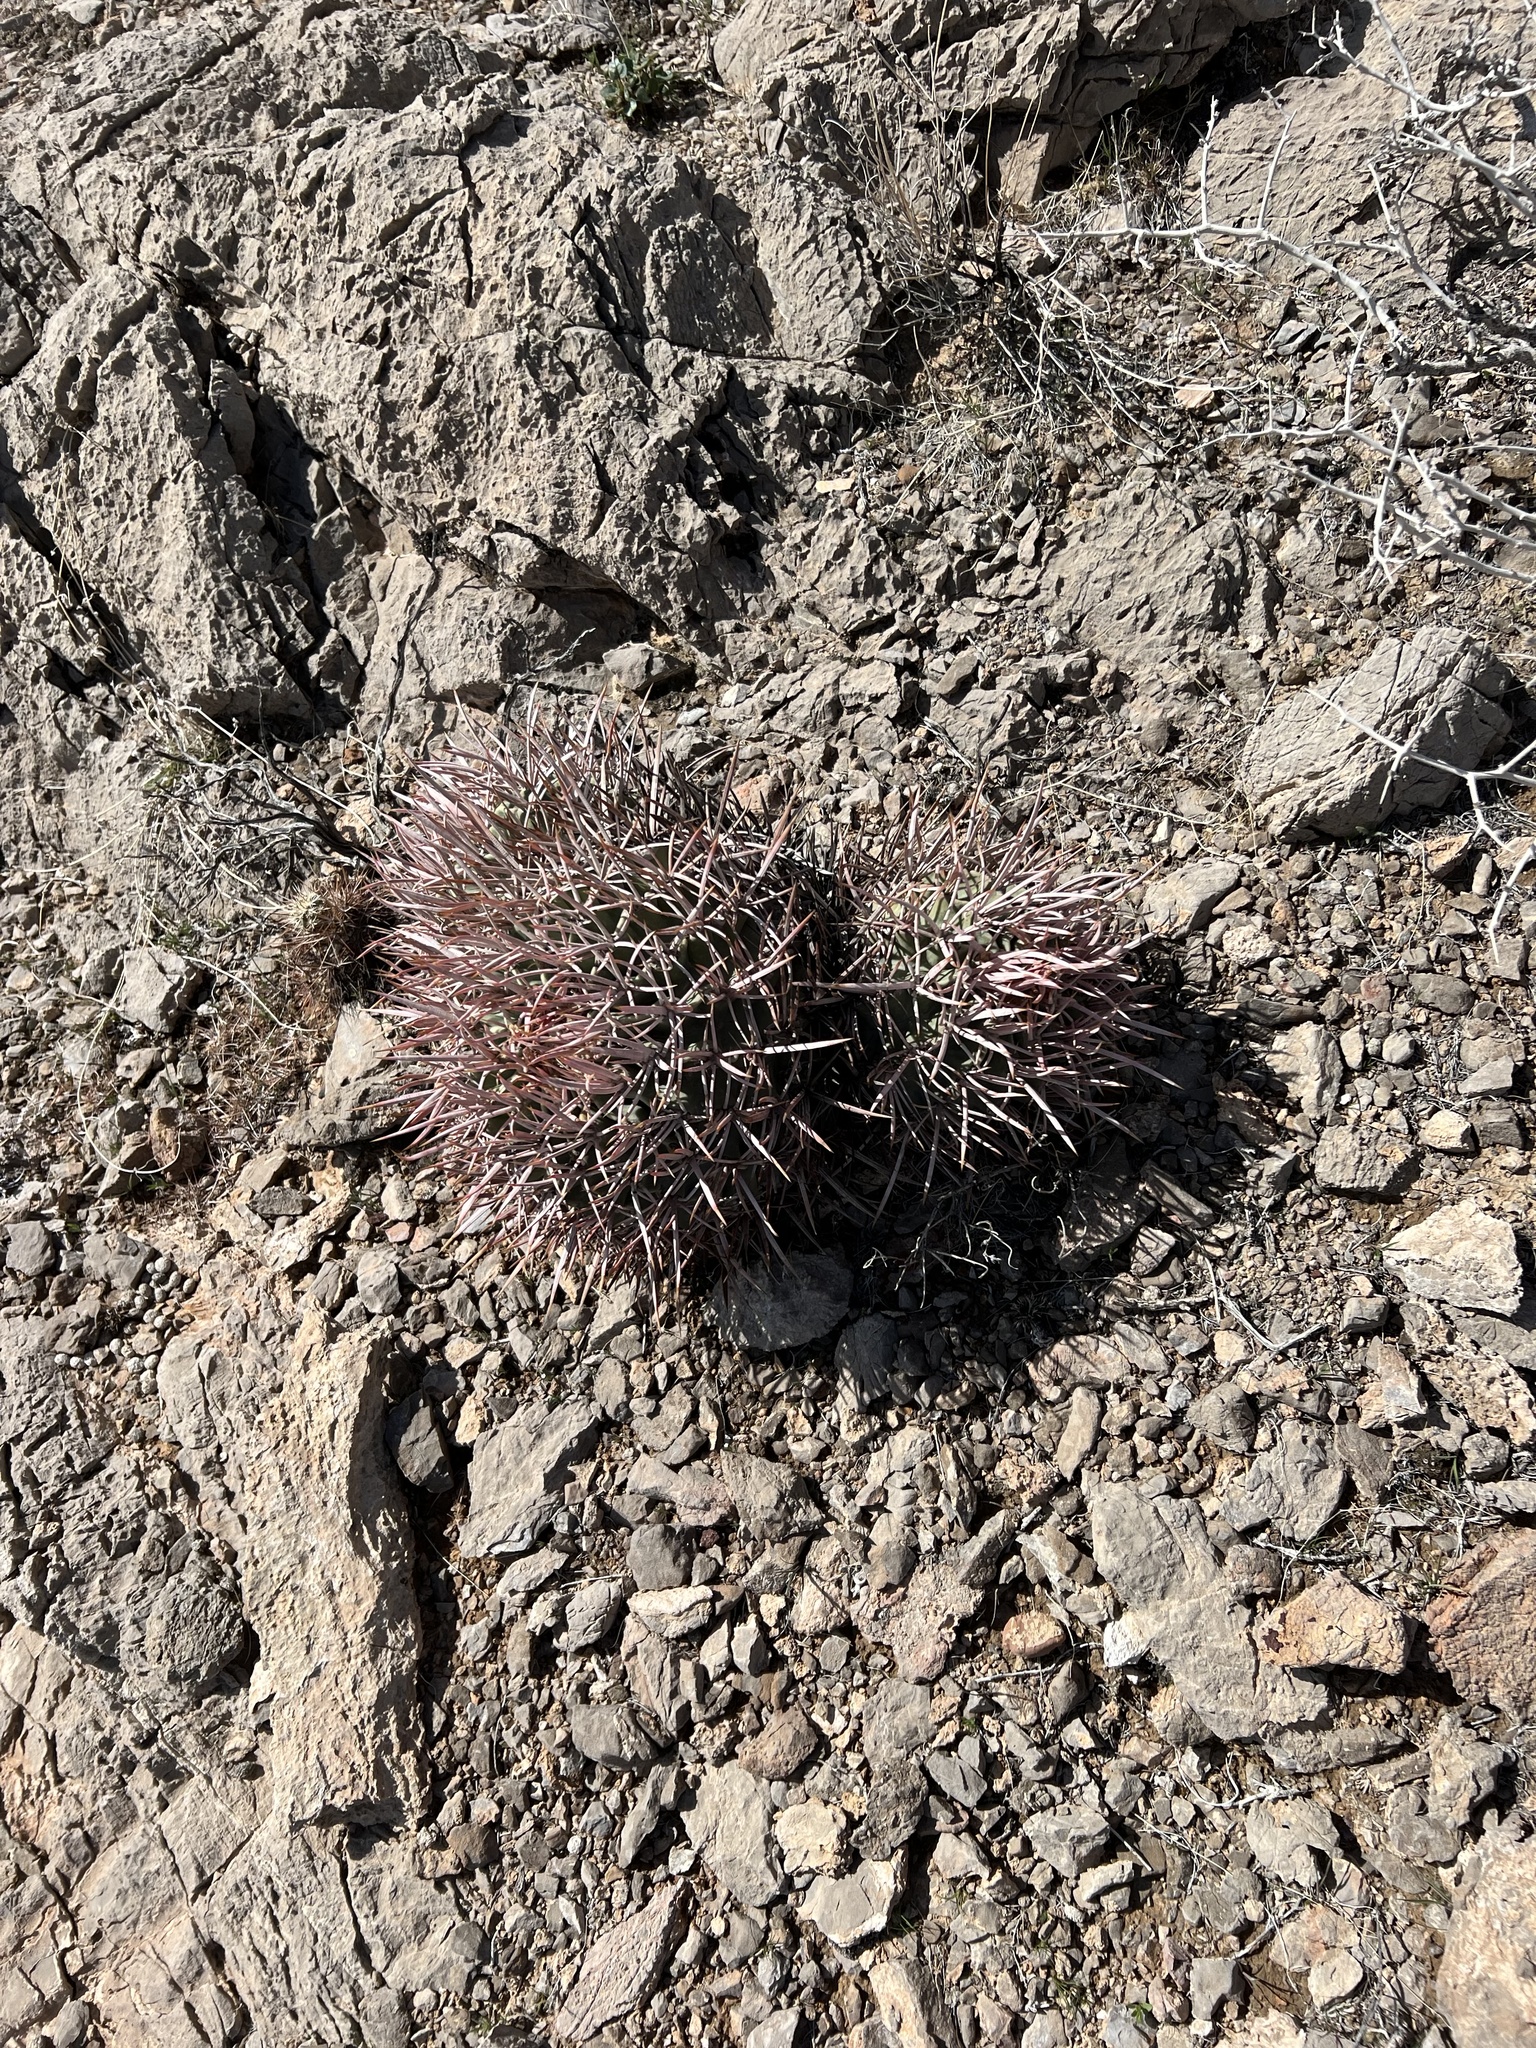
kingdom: Plantae
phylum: Tracheophyta
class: Magnoliopsida
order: Caryophyllales
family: Cactaceae
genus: Echinocactus
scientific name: Echinocactus polycephalus
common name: Cottontop cactus
